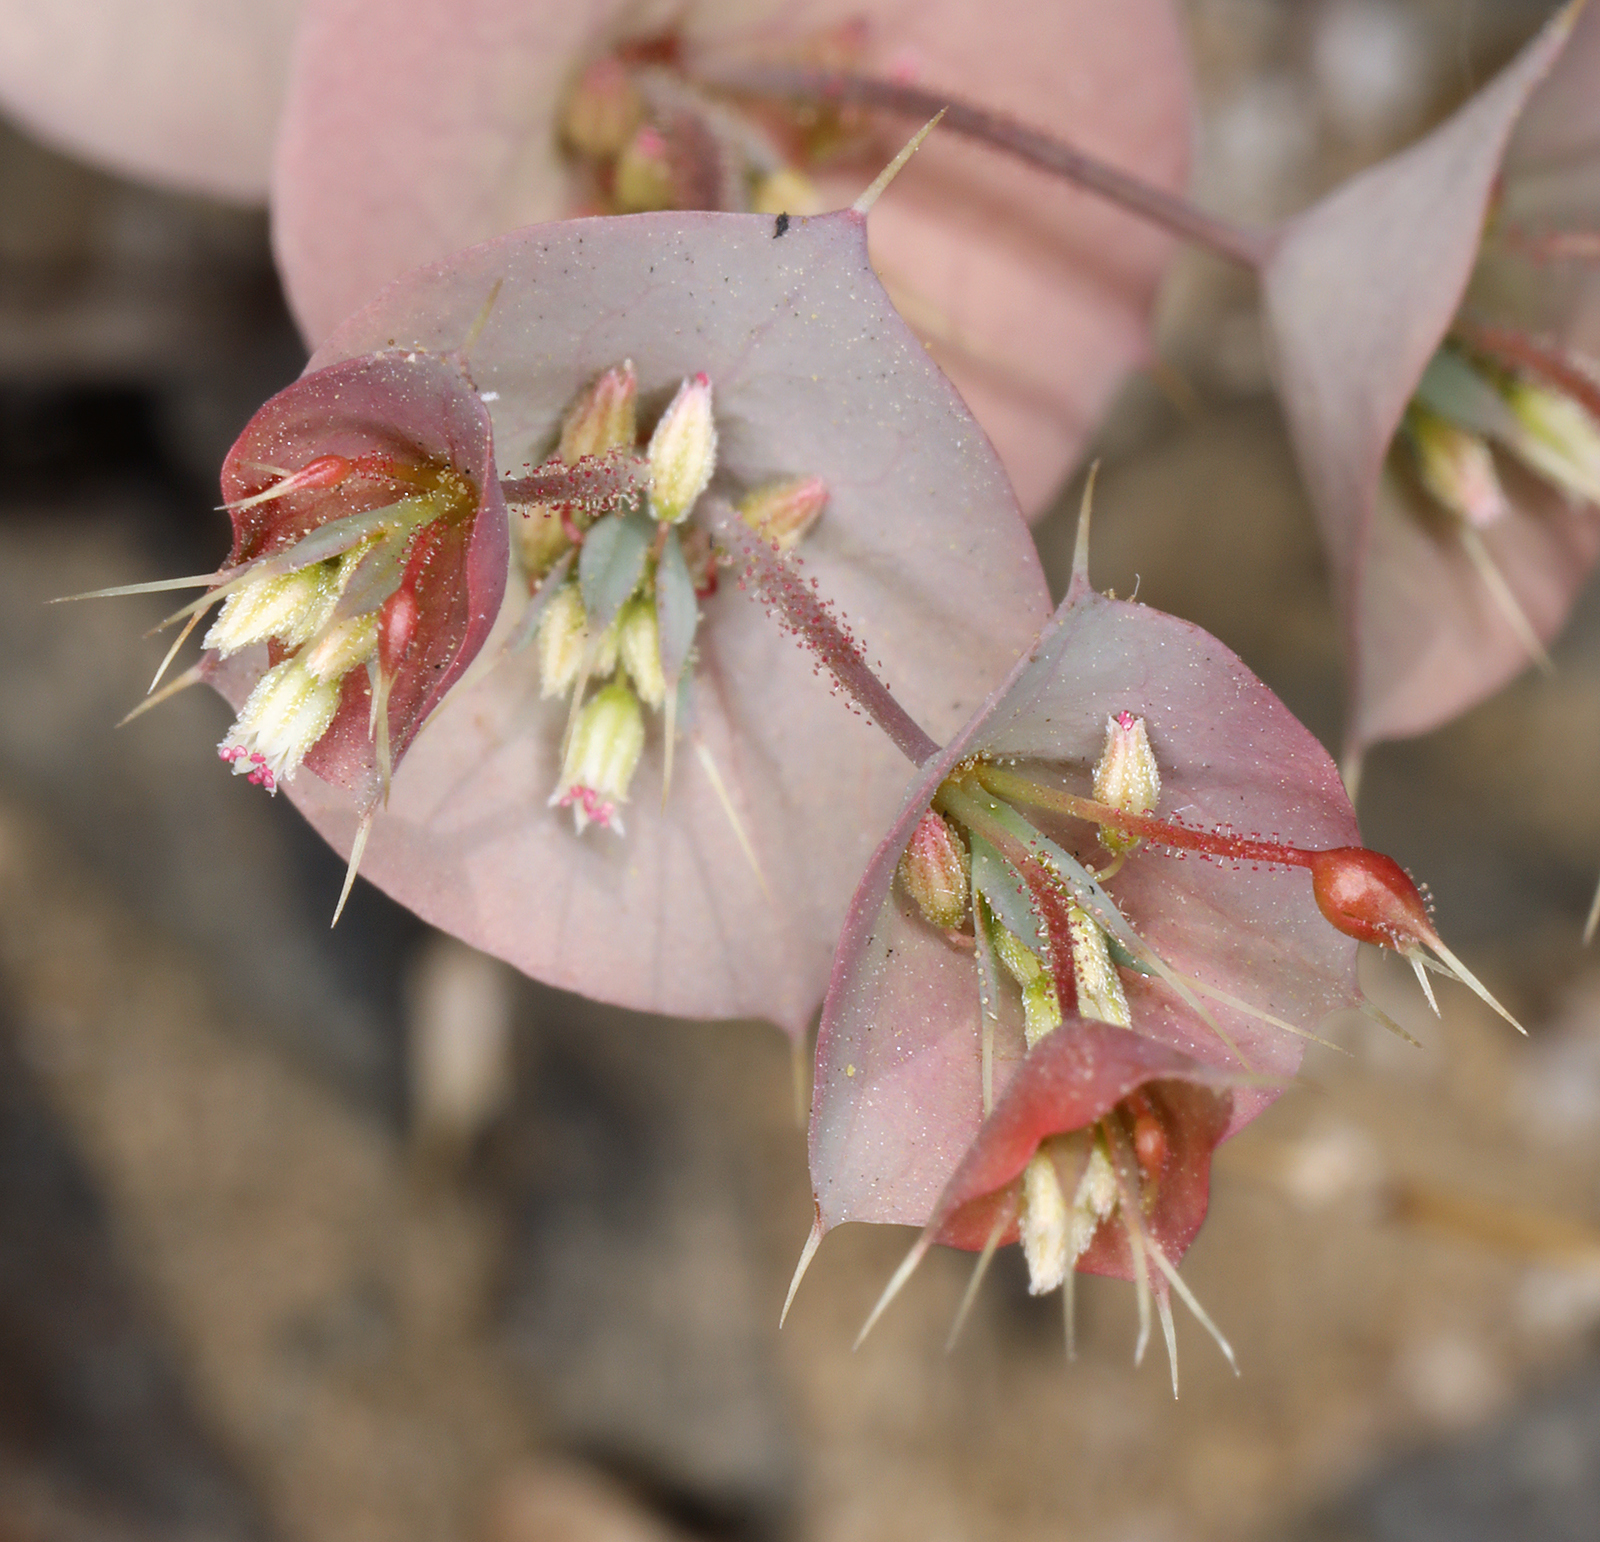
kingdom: Plantae
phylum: Tracheophyta
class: Magnoliopsida
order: Caryophyllales
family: Polygonaceae
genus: Oxytheca
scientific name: Oxytheca perfoliata
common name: Round-leaf puncturebract
